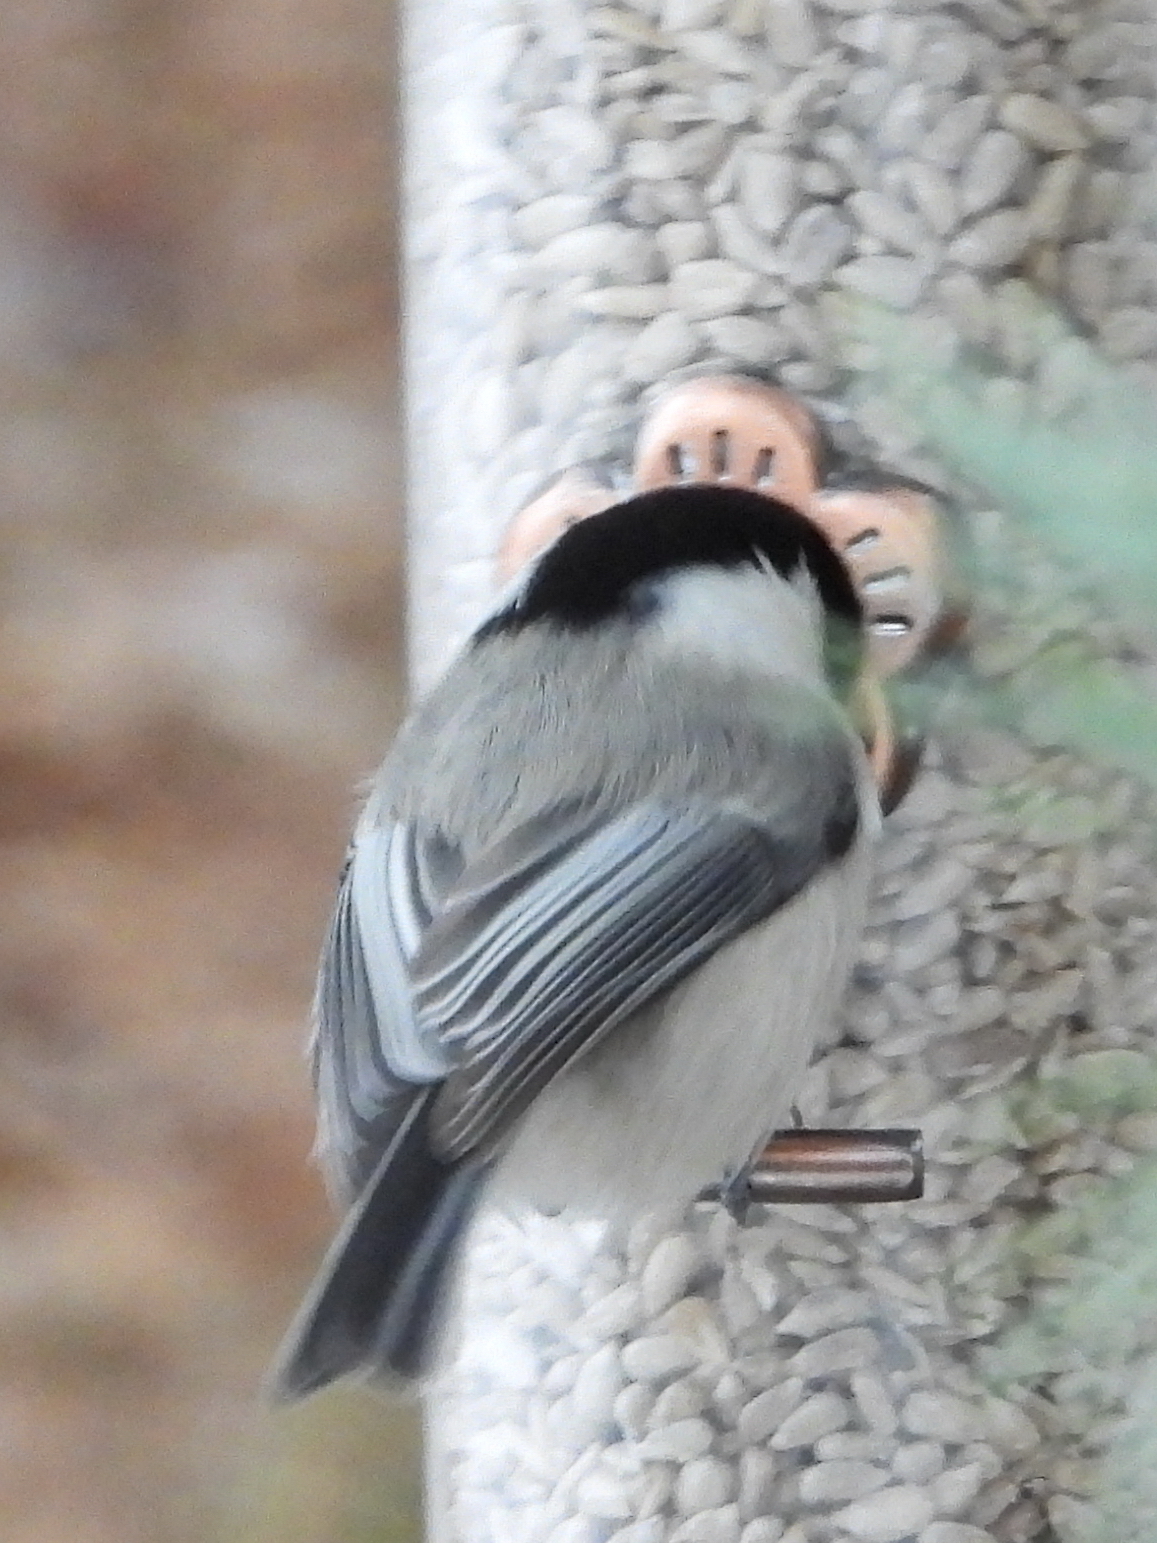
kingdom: Animalia
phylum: Chordata
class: Aves
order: Passeriformes
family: Paridae
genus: Poecile
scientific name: Poecile montanus
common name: Willow tit
